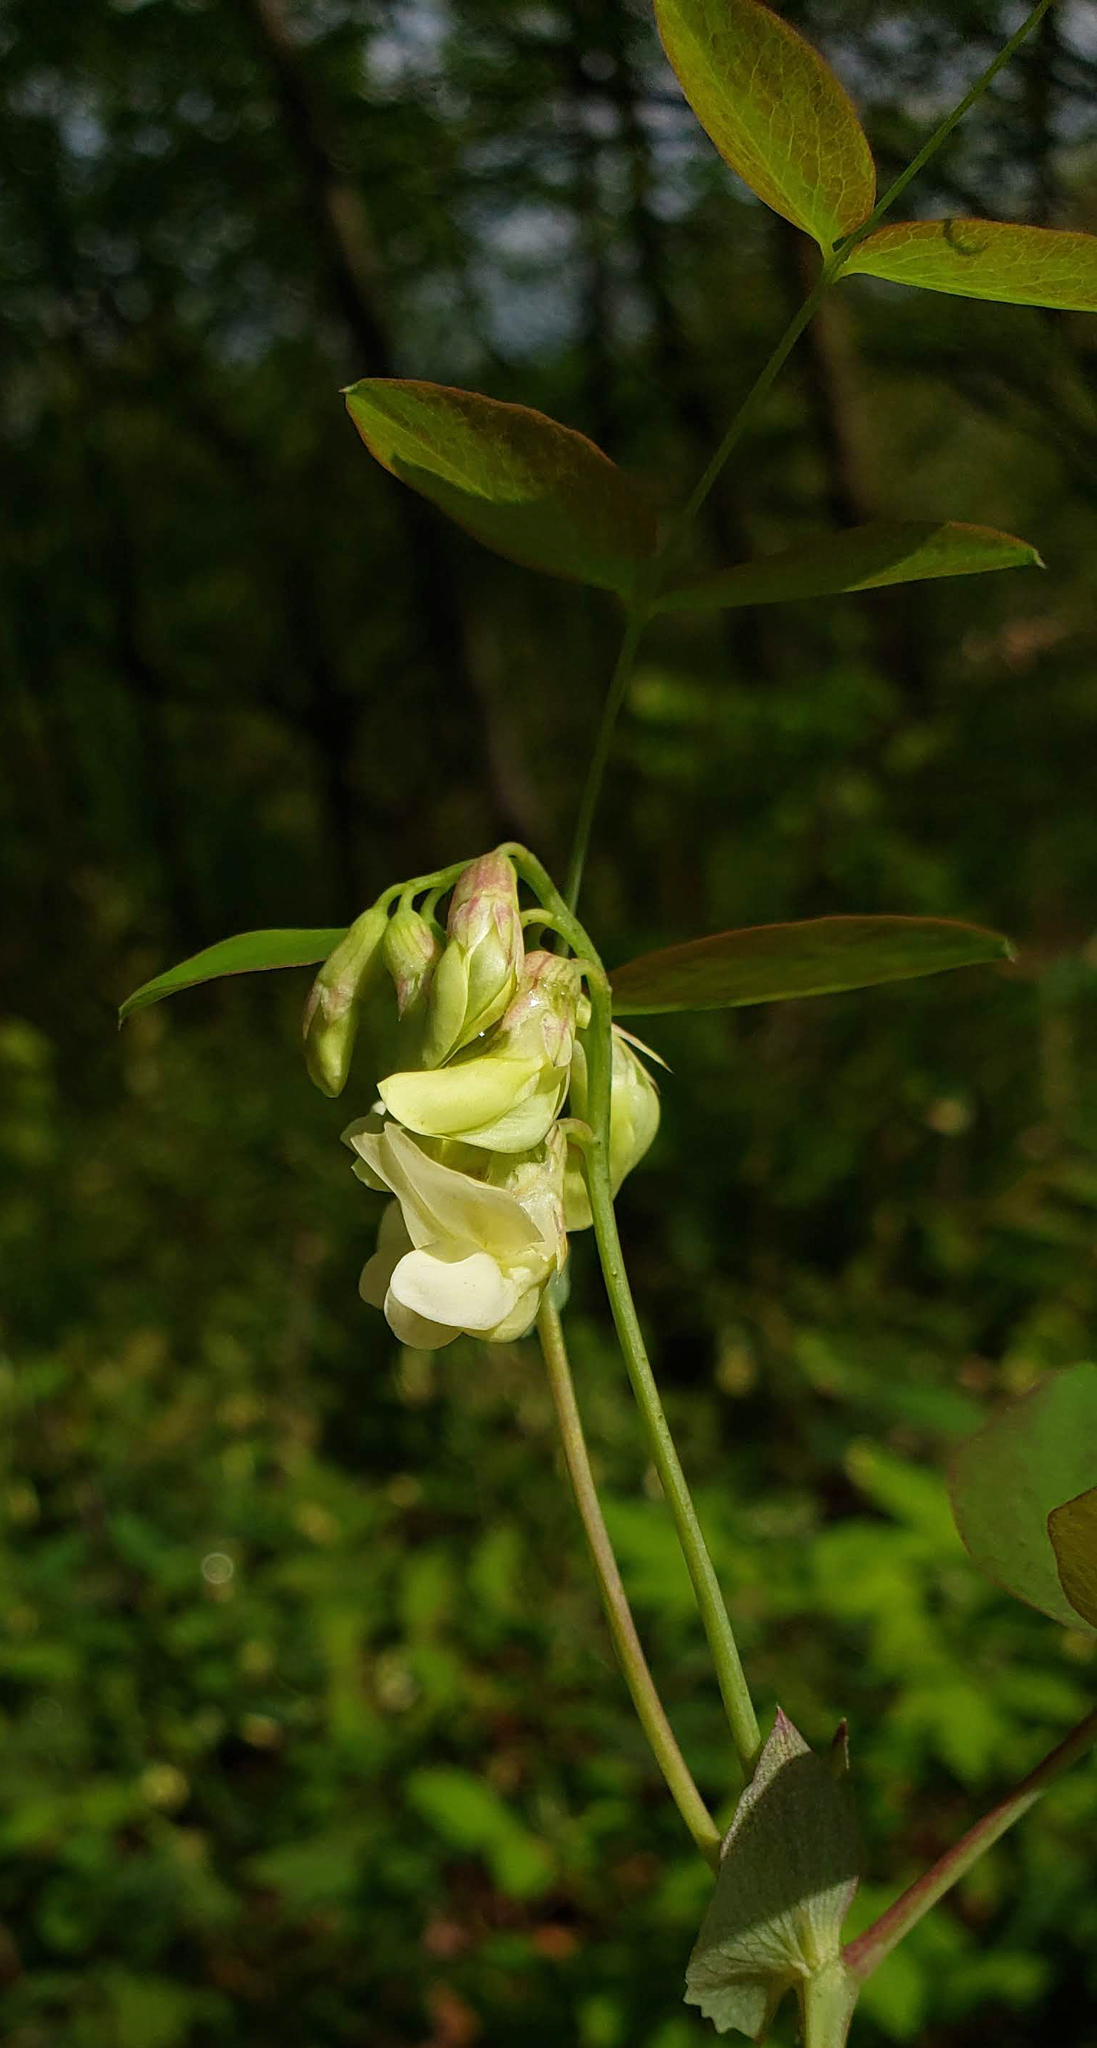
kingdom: Plantae
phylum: Tracheophyta
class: Magnoliopsida
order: Fabales
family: Fabaceae
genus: Lathyrus
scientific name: Lathyrus ochroleucus
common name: Pale vetchling
